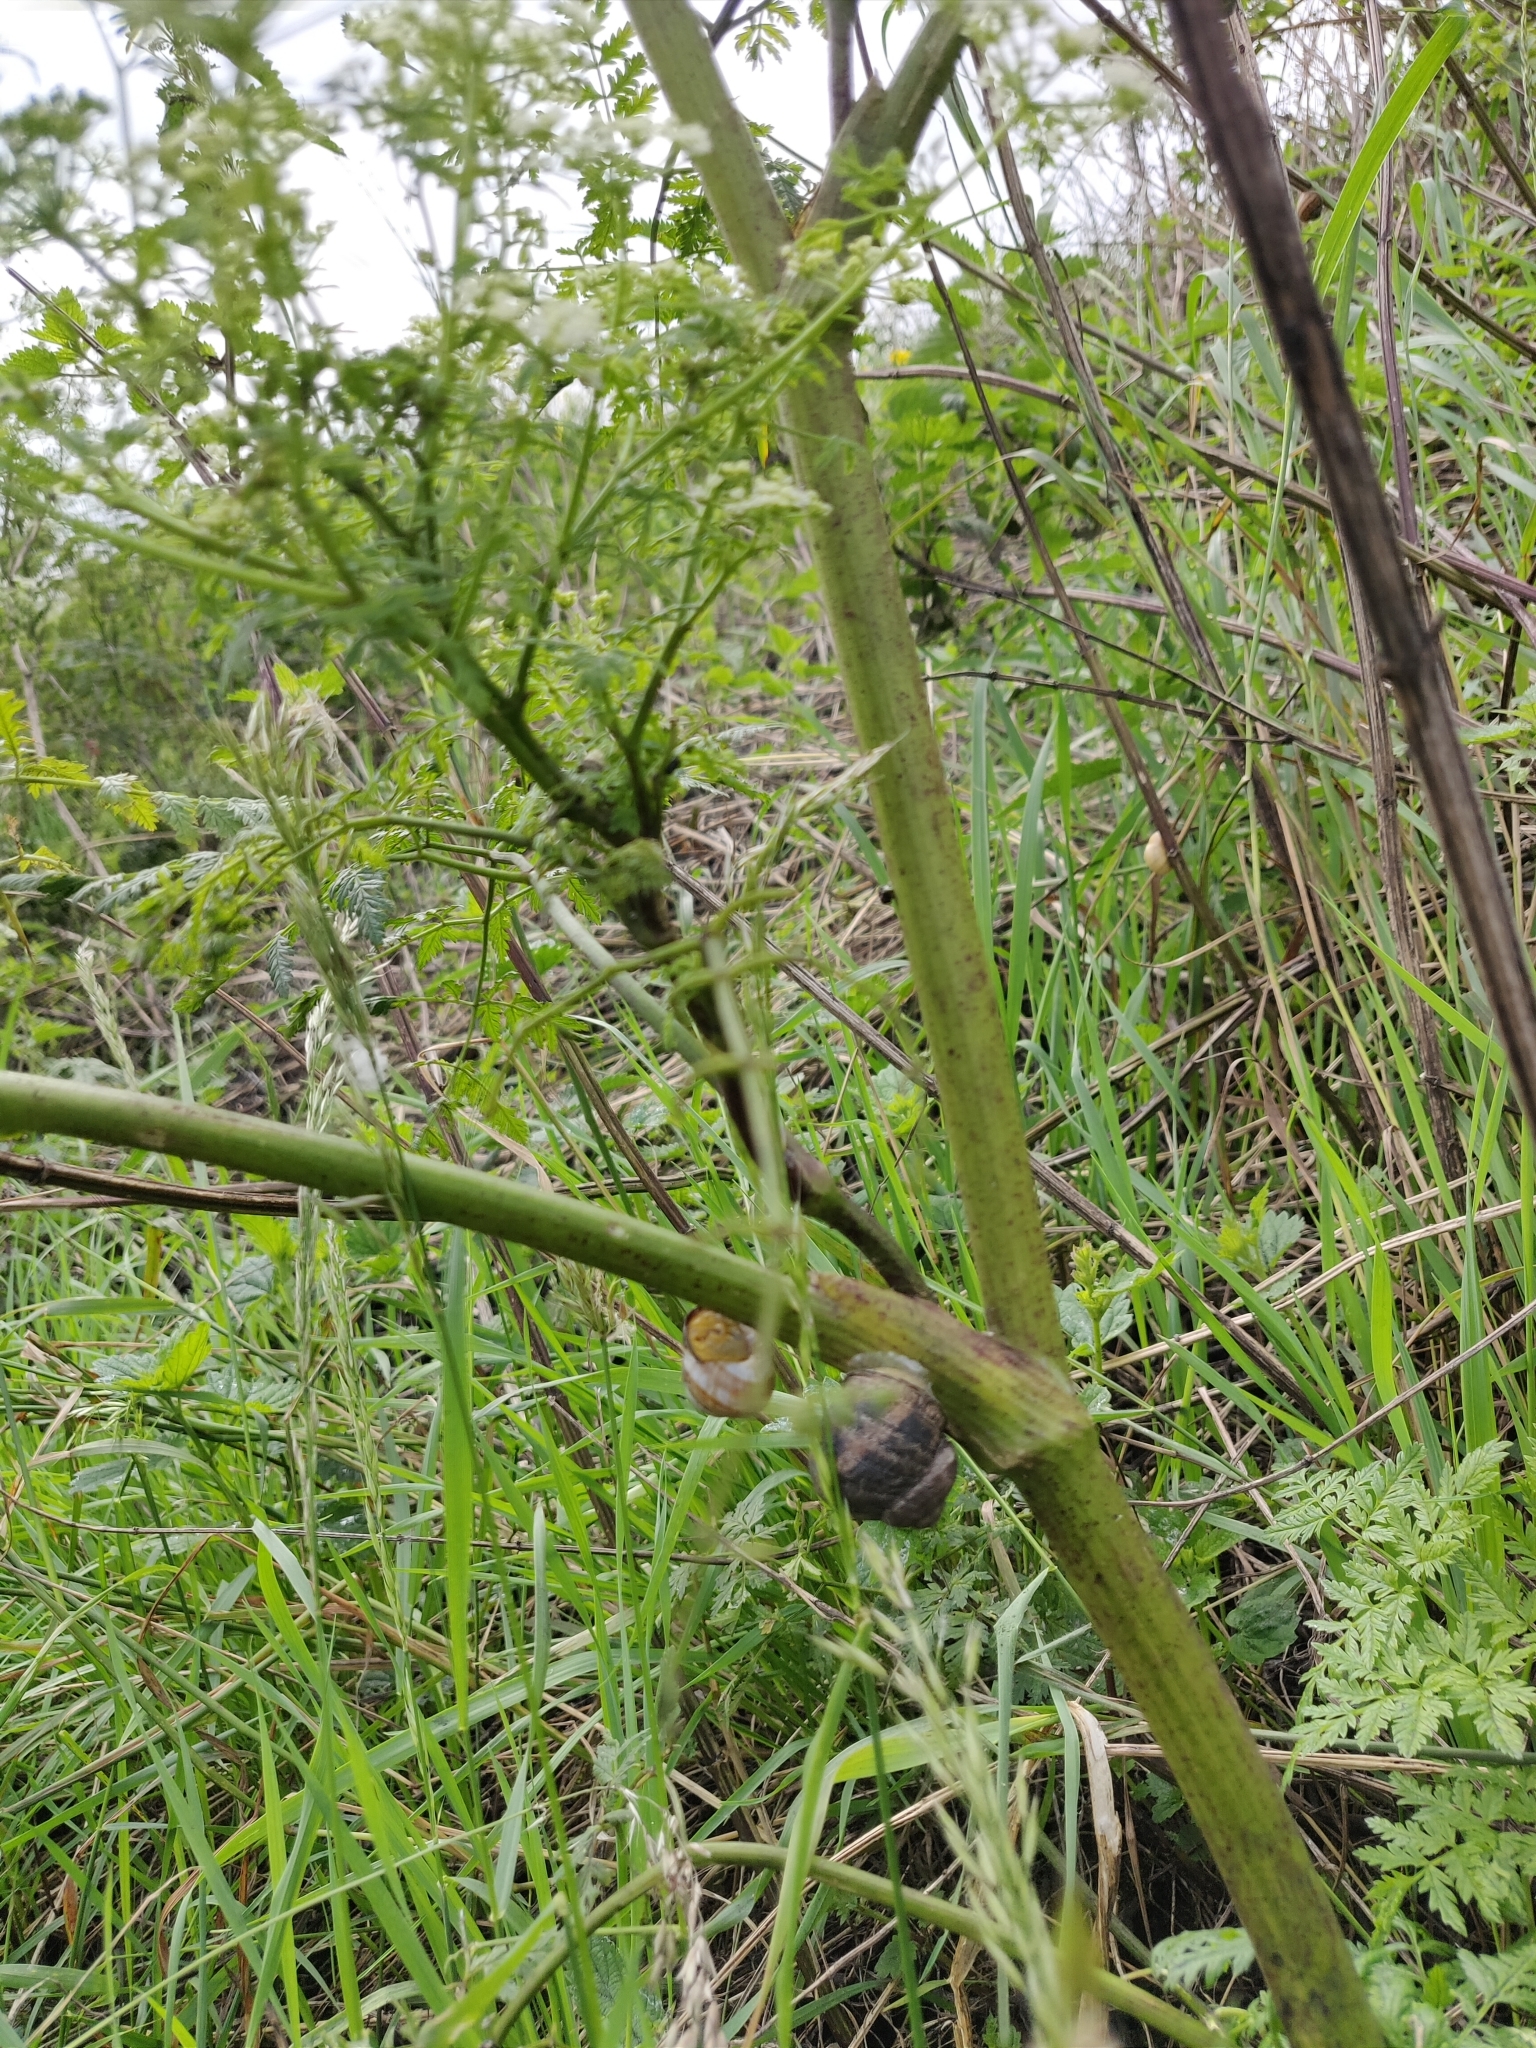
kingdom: Plantae
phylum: Tracheophyta
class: Magnoliopsida
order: Apiales
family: Apiaceae
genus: Conium
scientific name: Conium maculatum
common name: Hemlock
